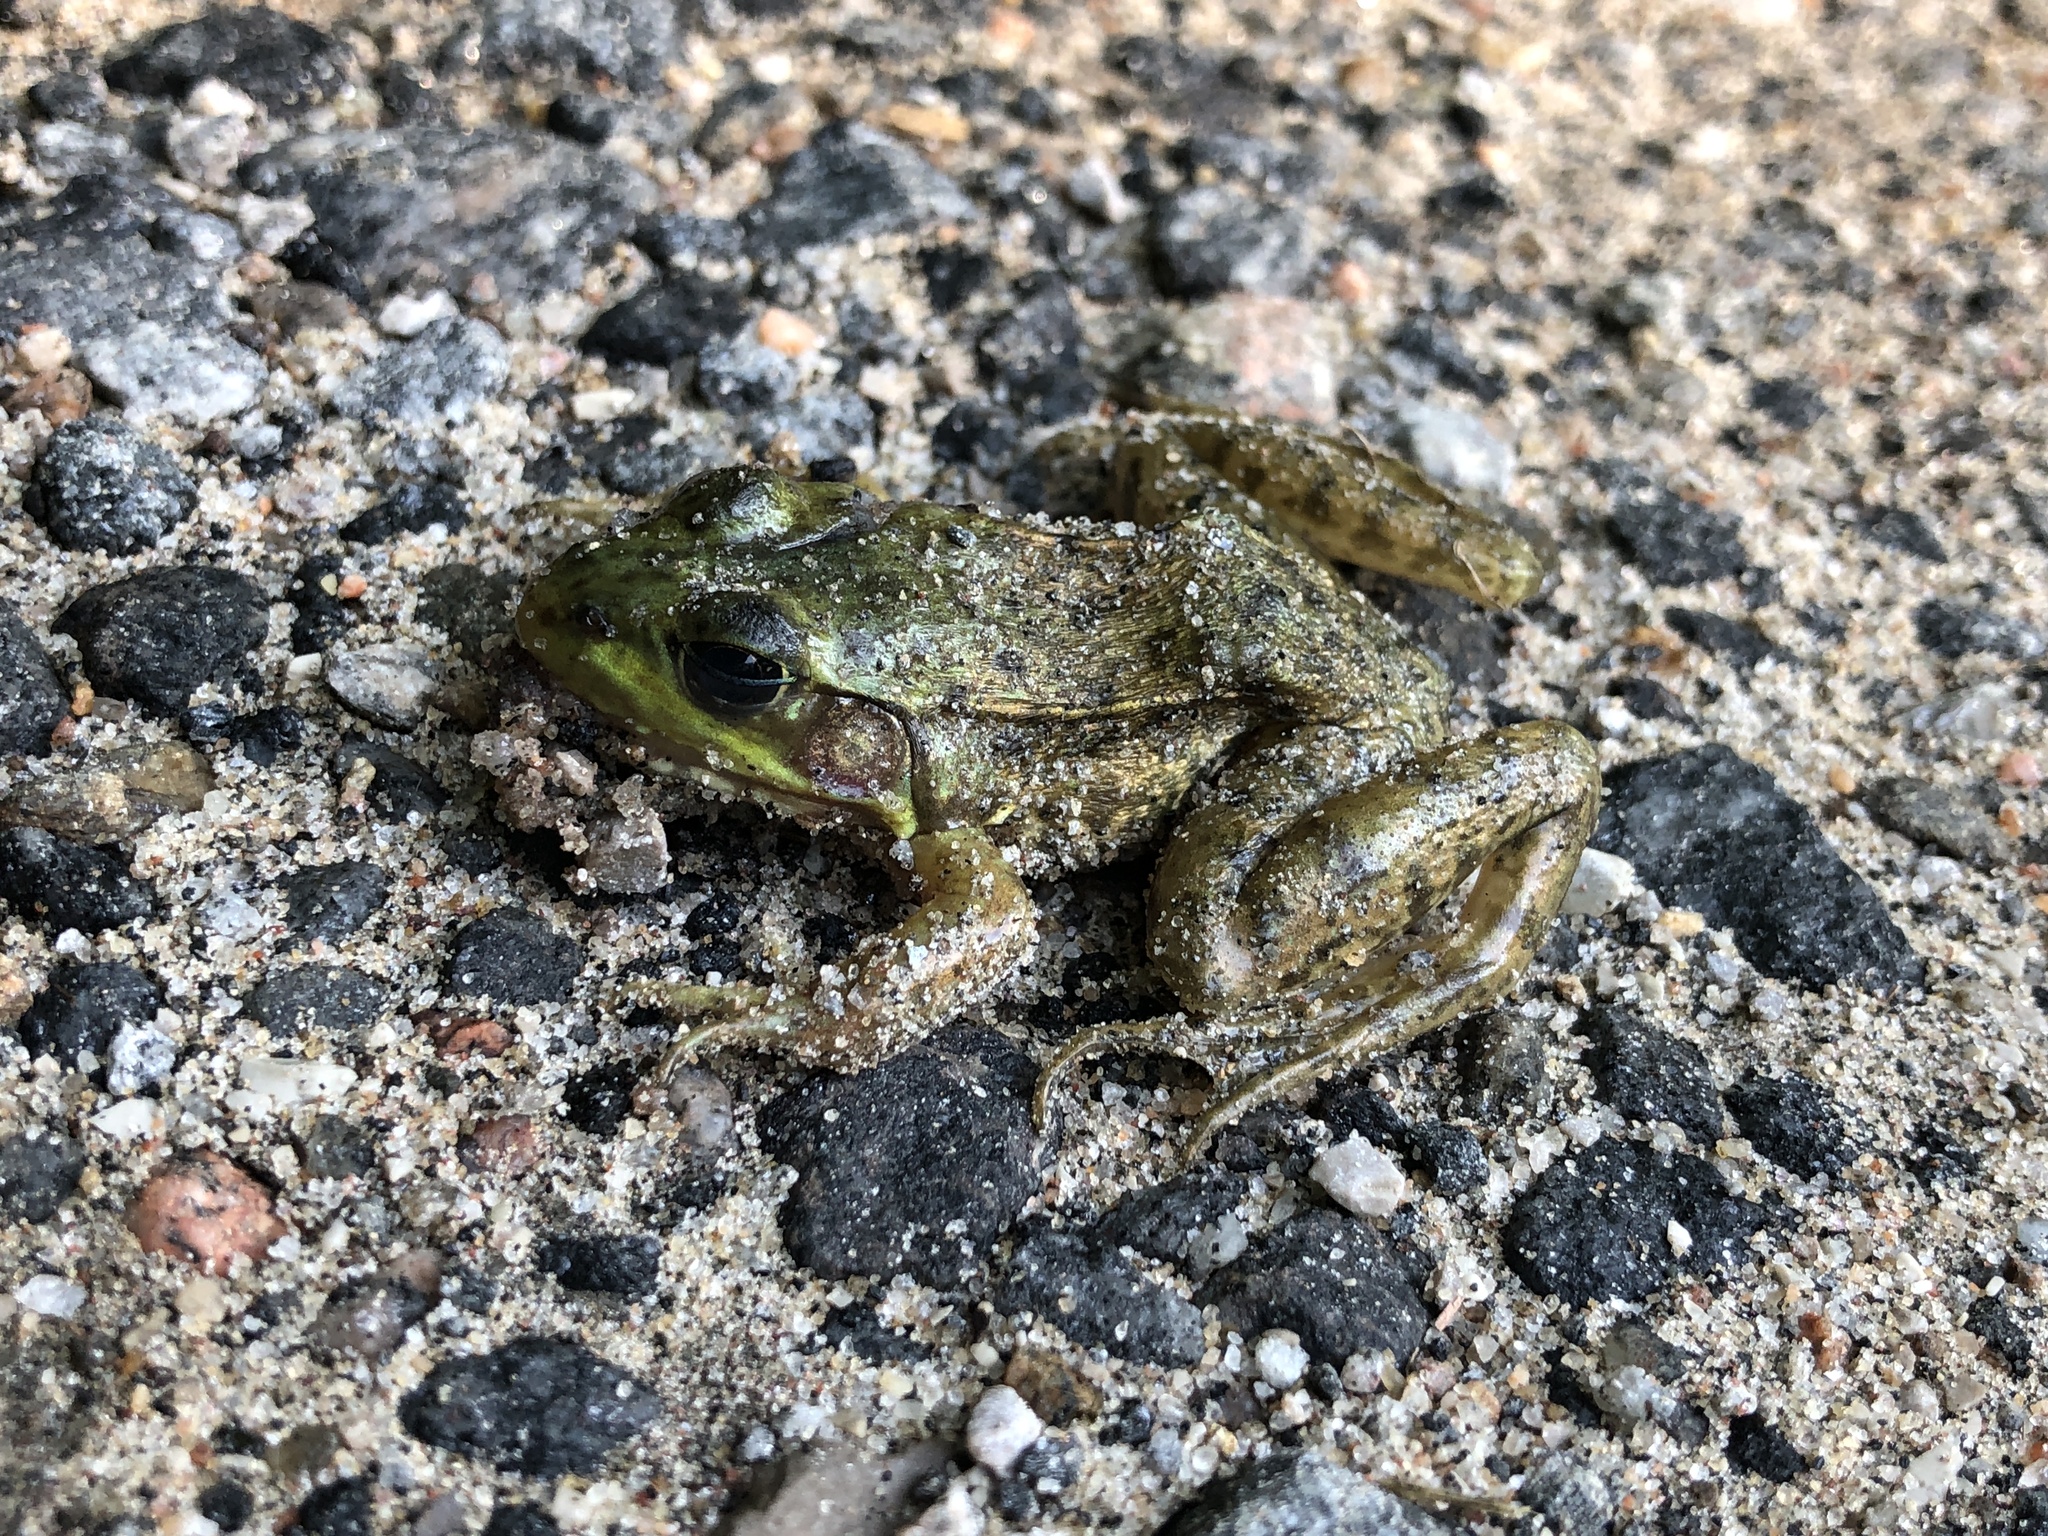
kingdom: Animalia
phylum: Chordata
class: Amphibia
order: Anura
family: Ranidae
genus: Lithobates
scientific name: Lithobates clamitans
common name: Green frog
